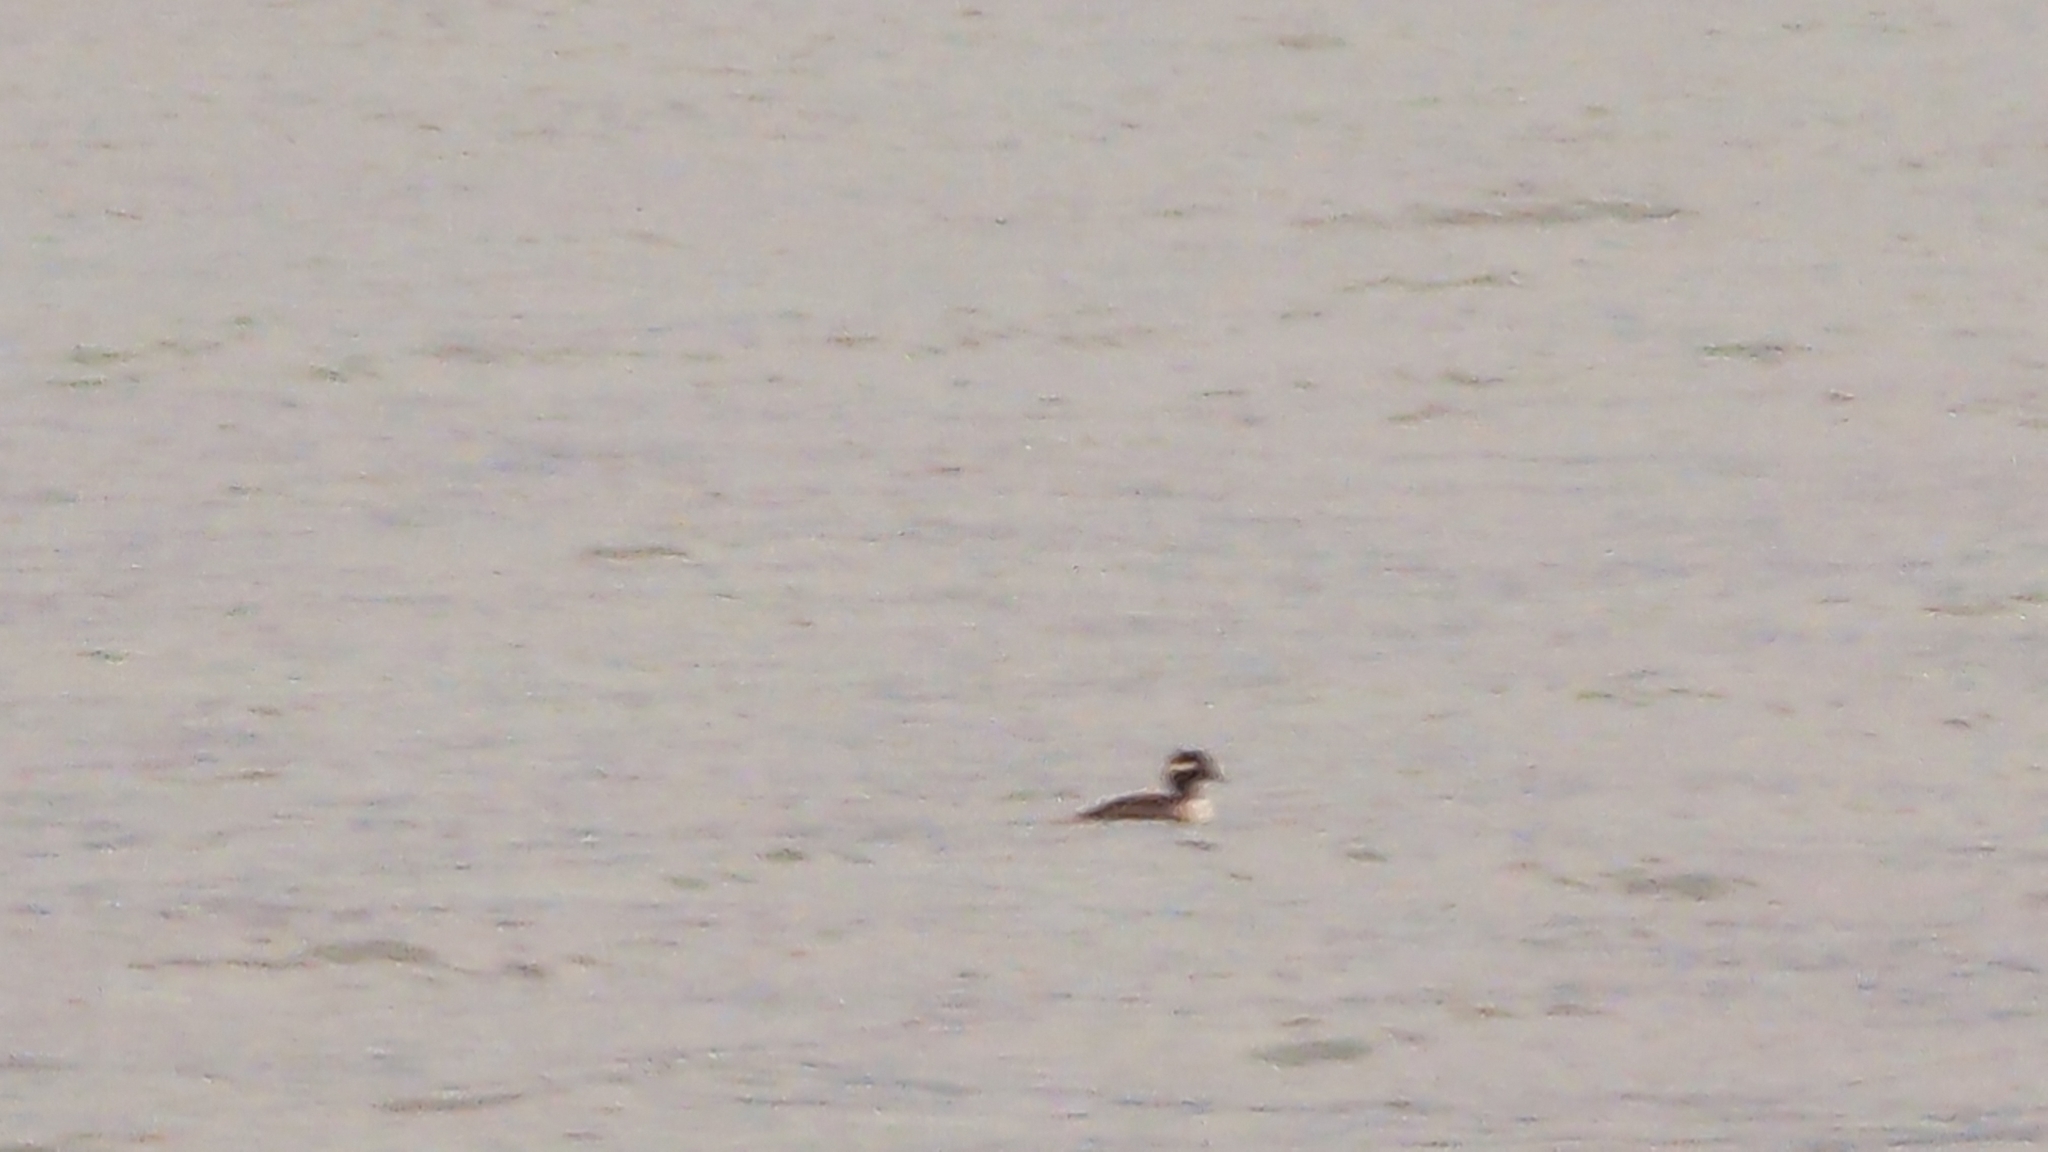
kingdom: Animalia
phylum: Chordata
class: Aves
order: Anseriformes
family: Anatidae
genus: Bucephala
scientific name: Bucephala albeola
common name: Bufflehead
